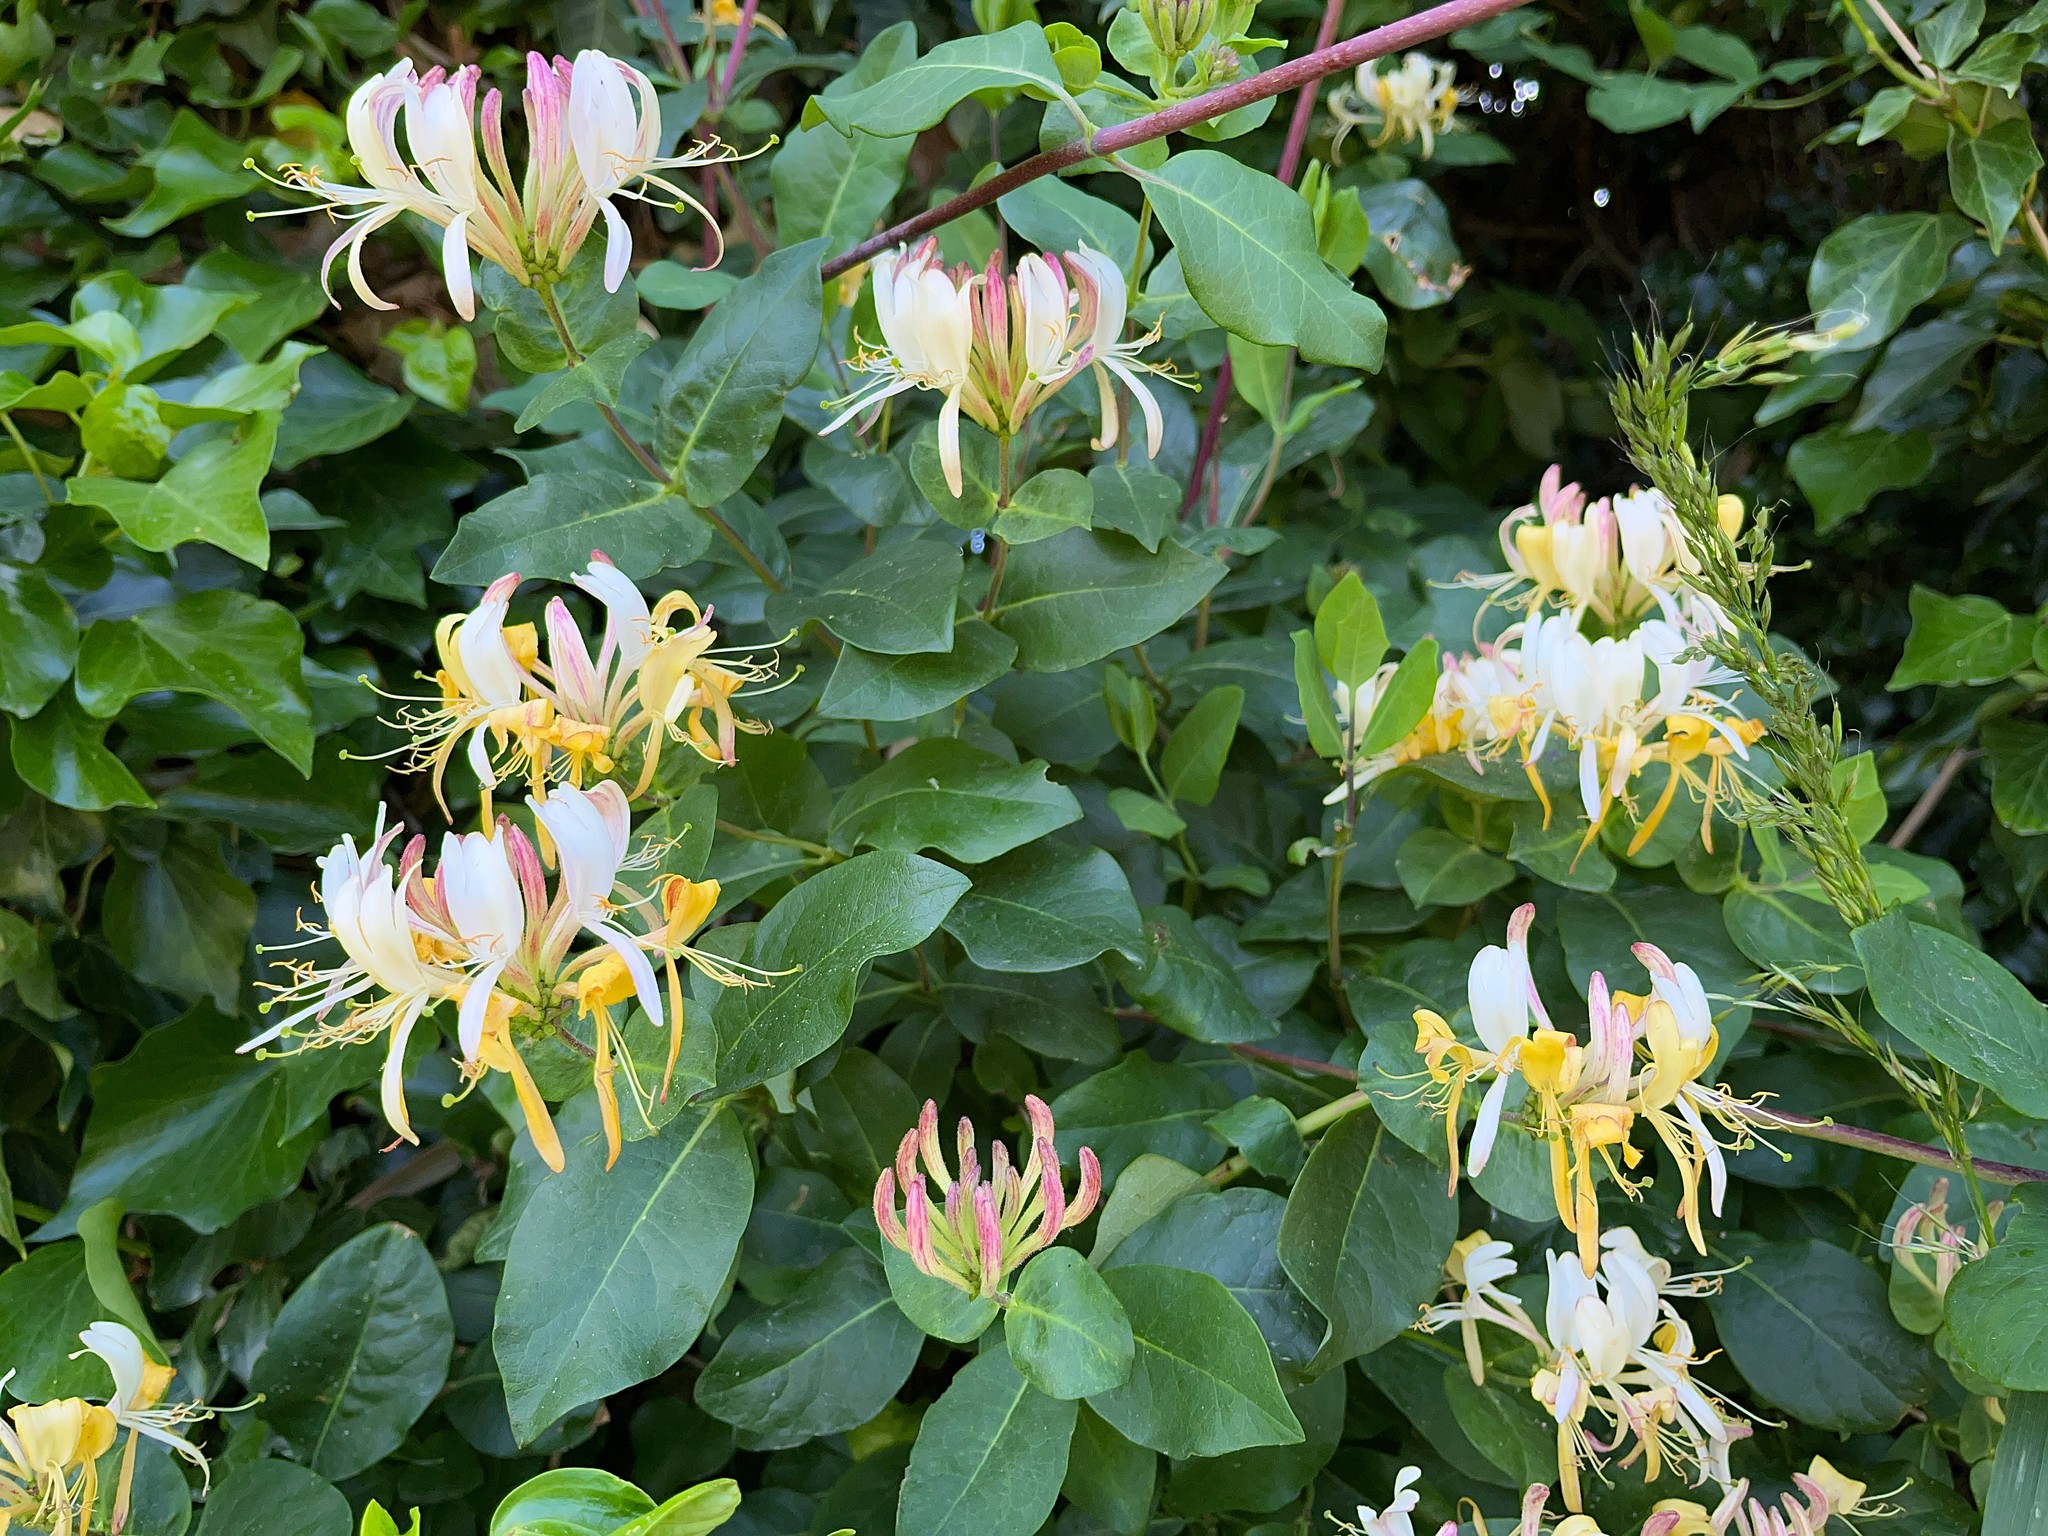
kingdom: Plantae
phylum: Tracheophyta
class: Magnoliopsida
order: Dipsacales
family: Caprifoliaceae
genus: Lonicera
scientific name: Lonicera periclymenum
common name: European honeysuckle
